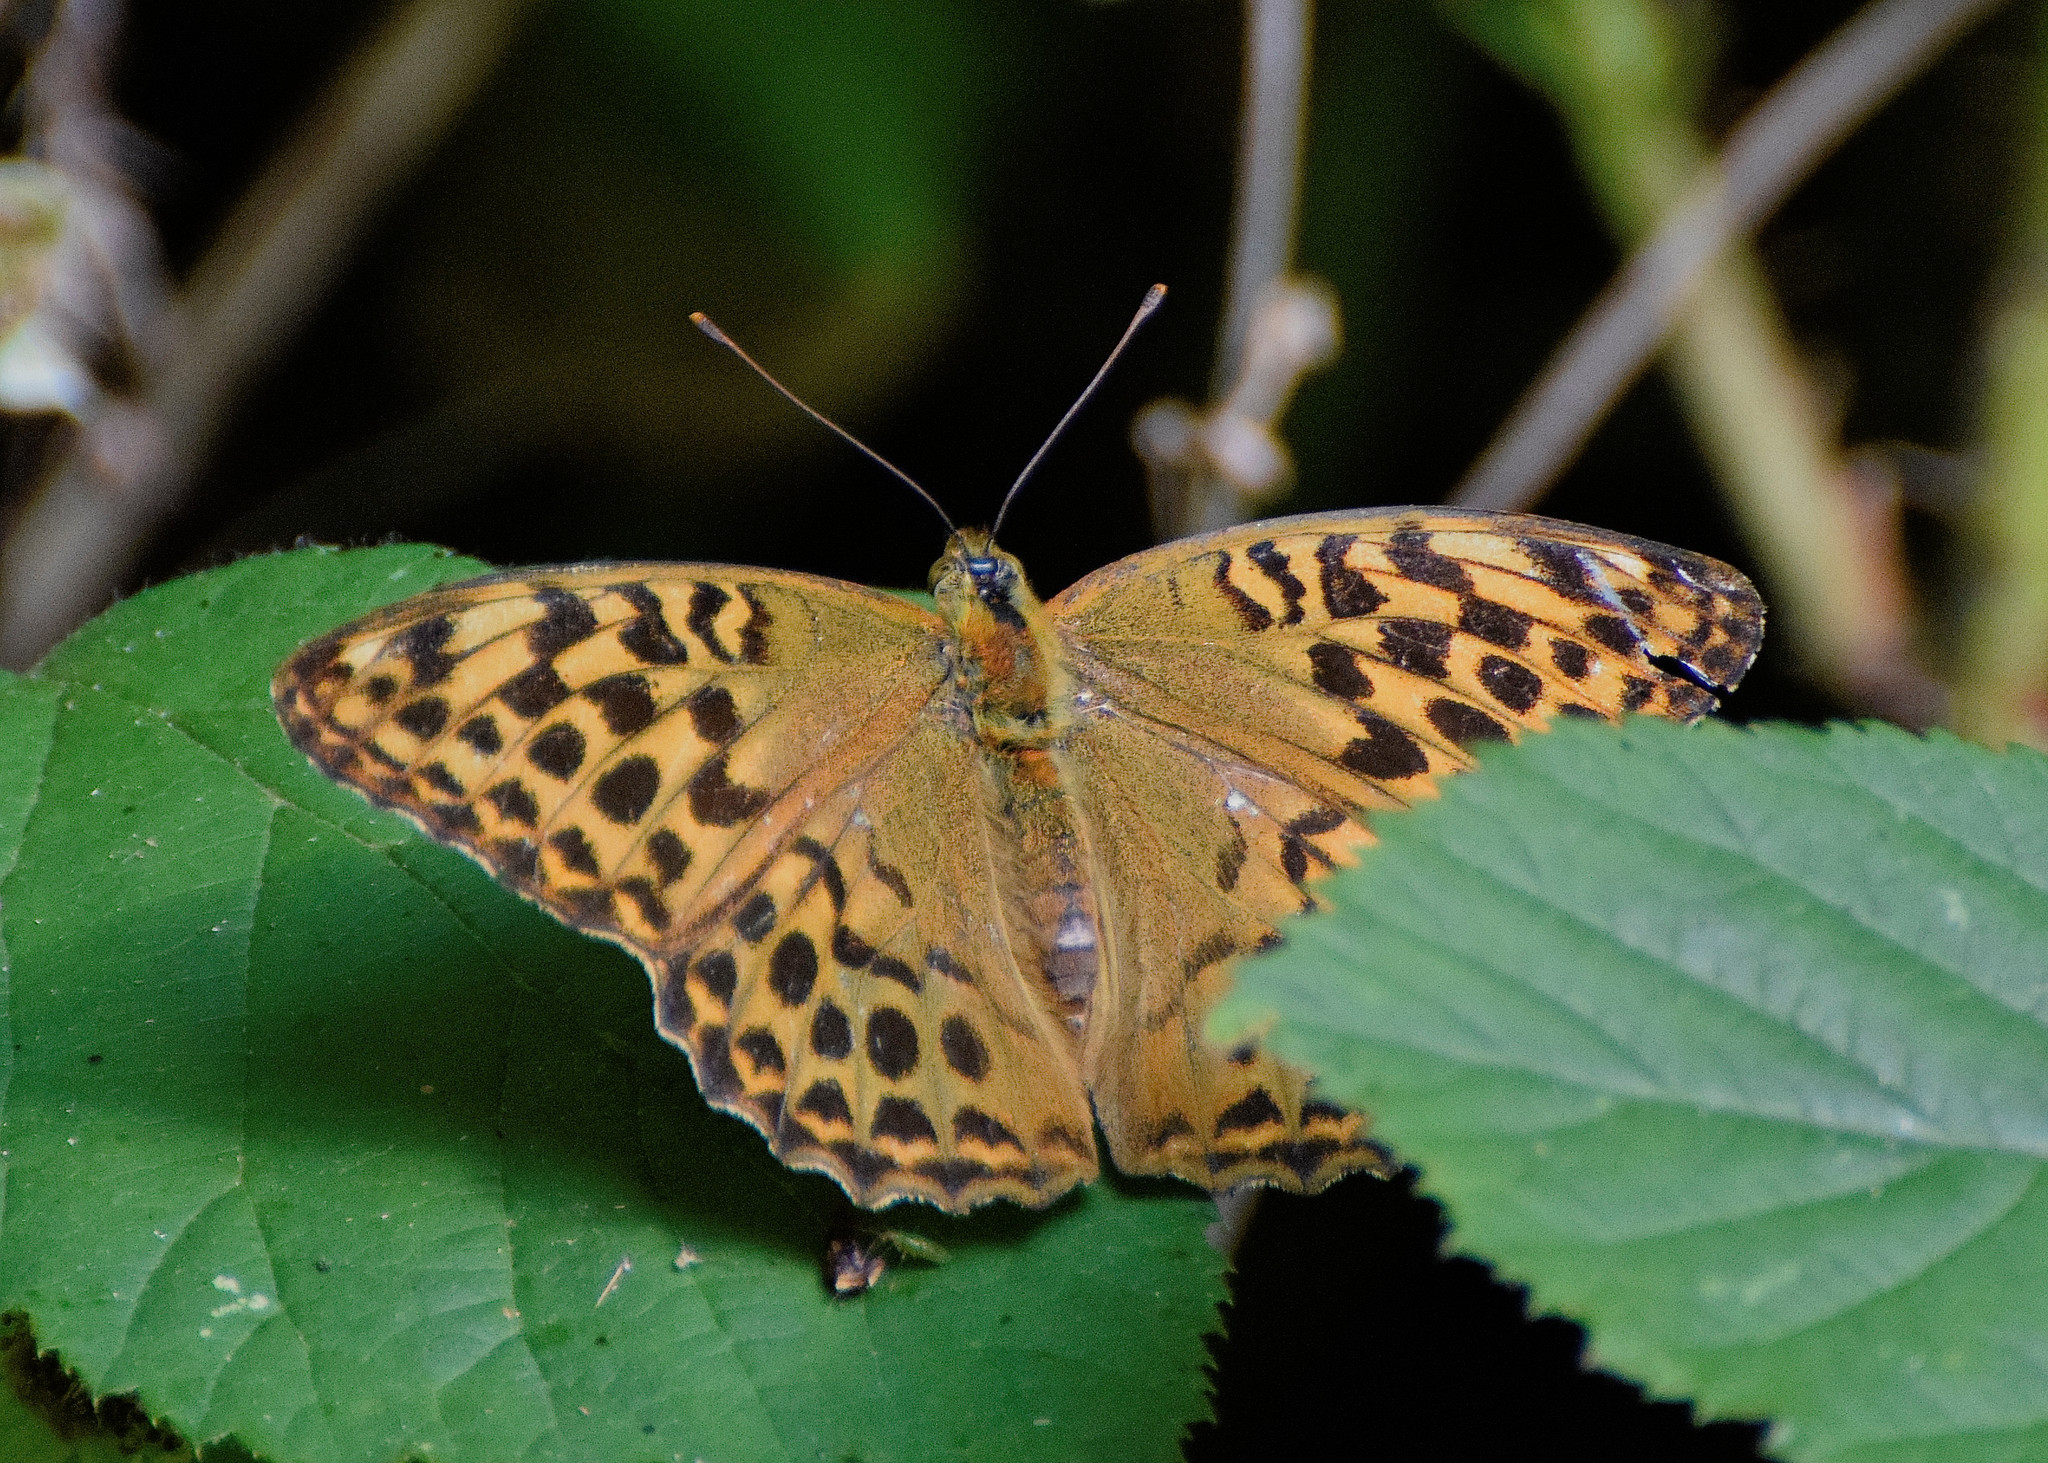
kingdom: Animalia
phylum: Arthropoda
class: Insecta
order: Lepidoptera
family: Nymphalidae
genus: Argynnis
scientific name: Argynnis paphia
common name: Silver-washed fritillary
